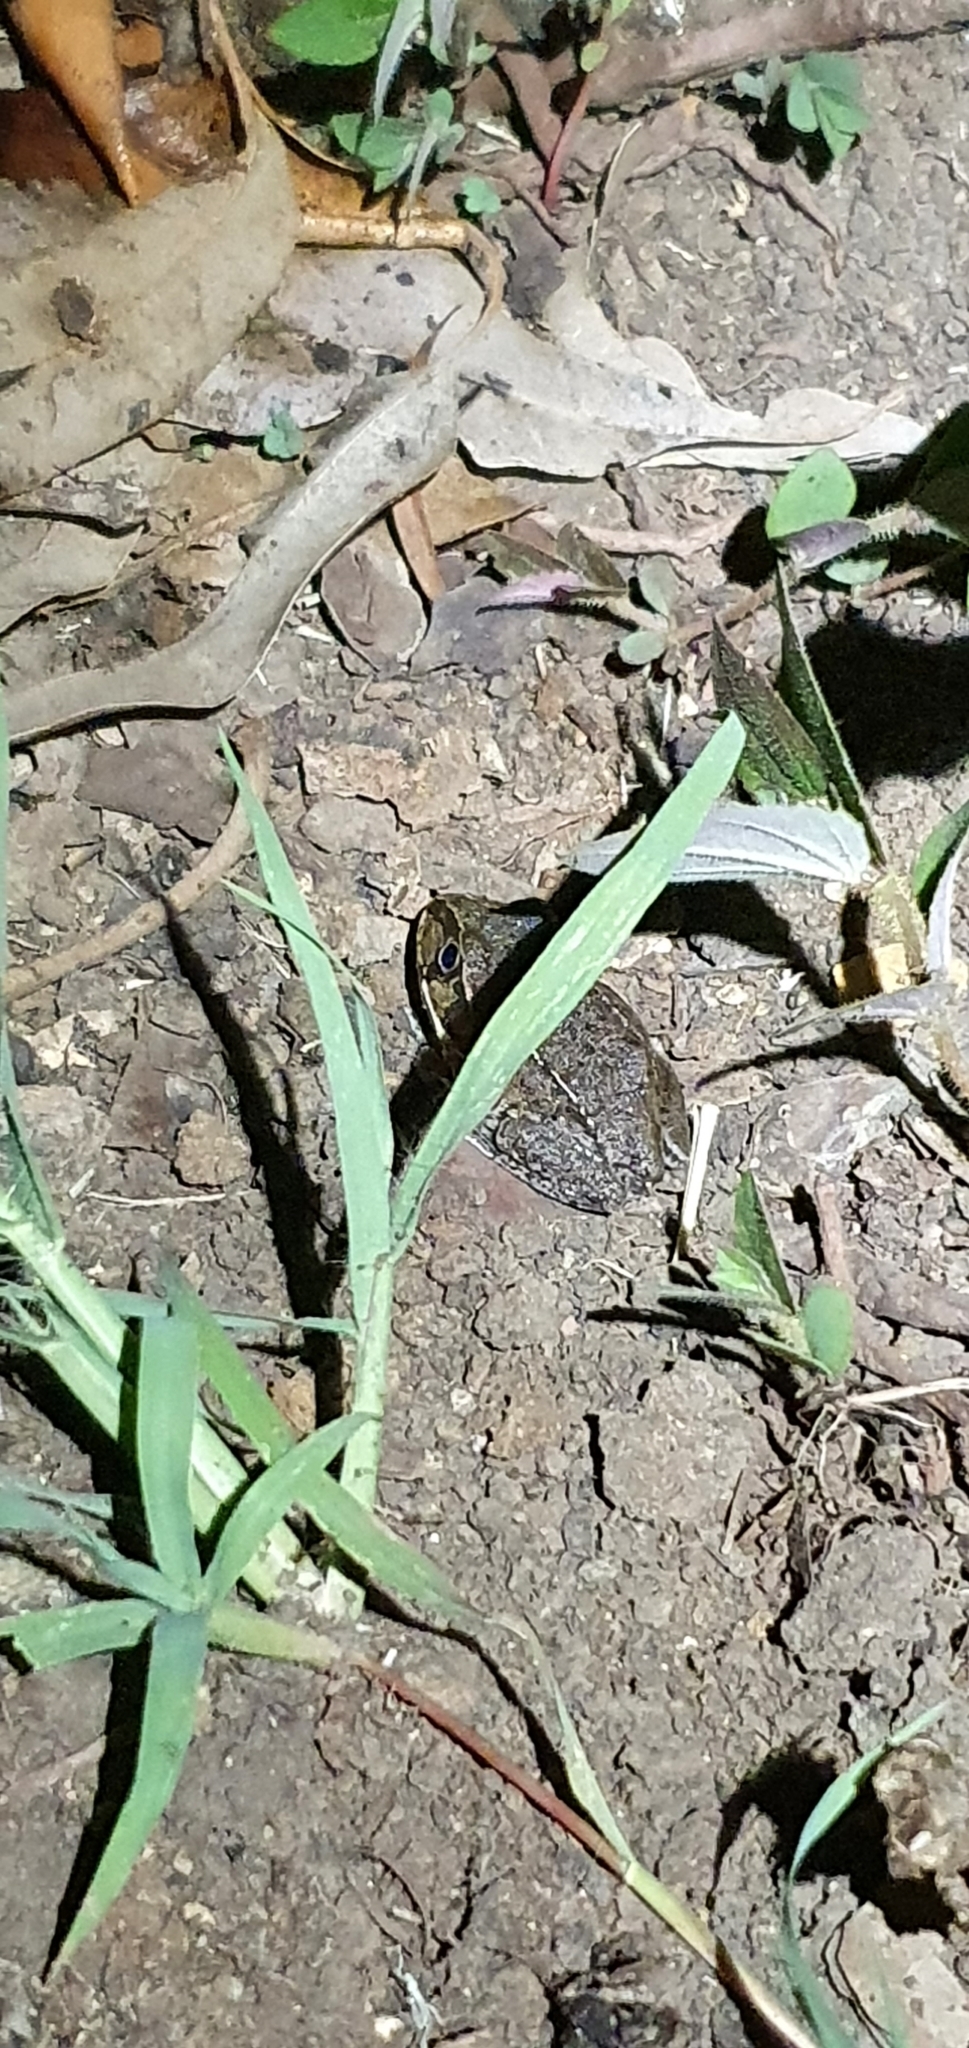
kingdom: Animalia
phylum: Chordata
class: Amphibia
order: Anura
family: Pelodryadidae
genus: Ranoidea
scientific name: Ranoidea novaehollandiae
